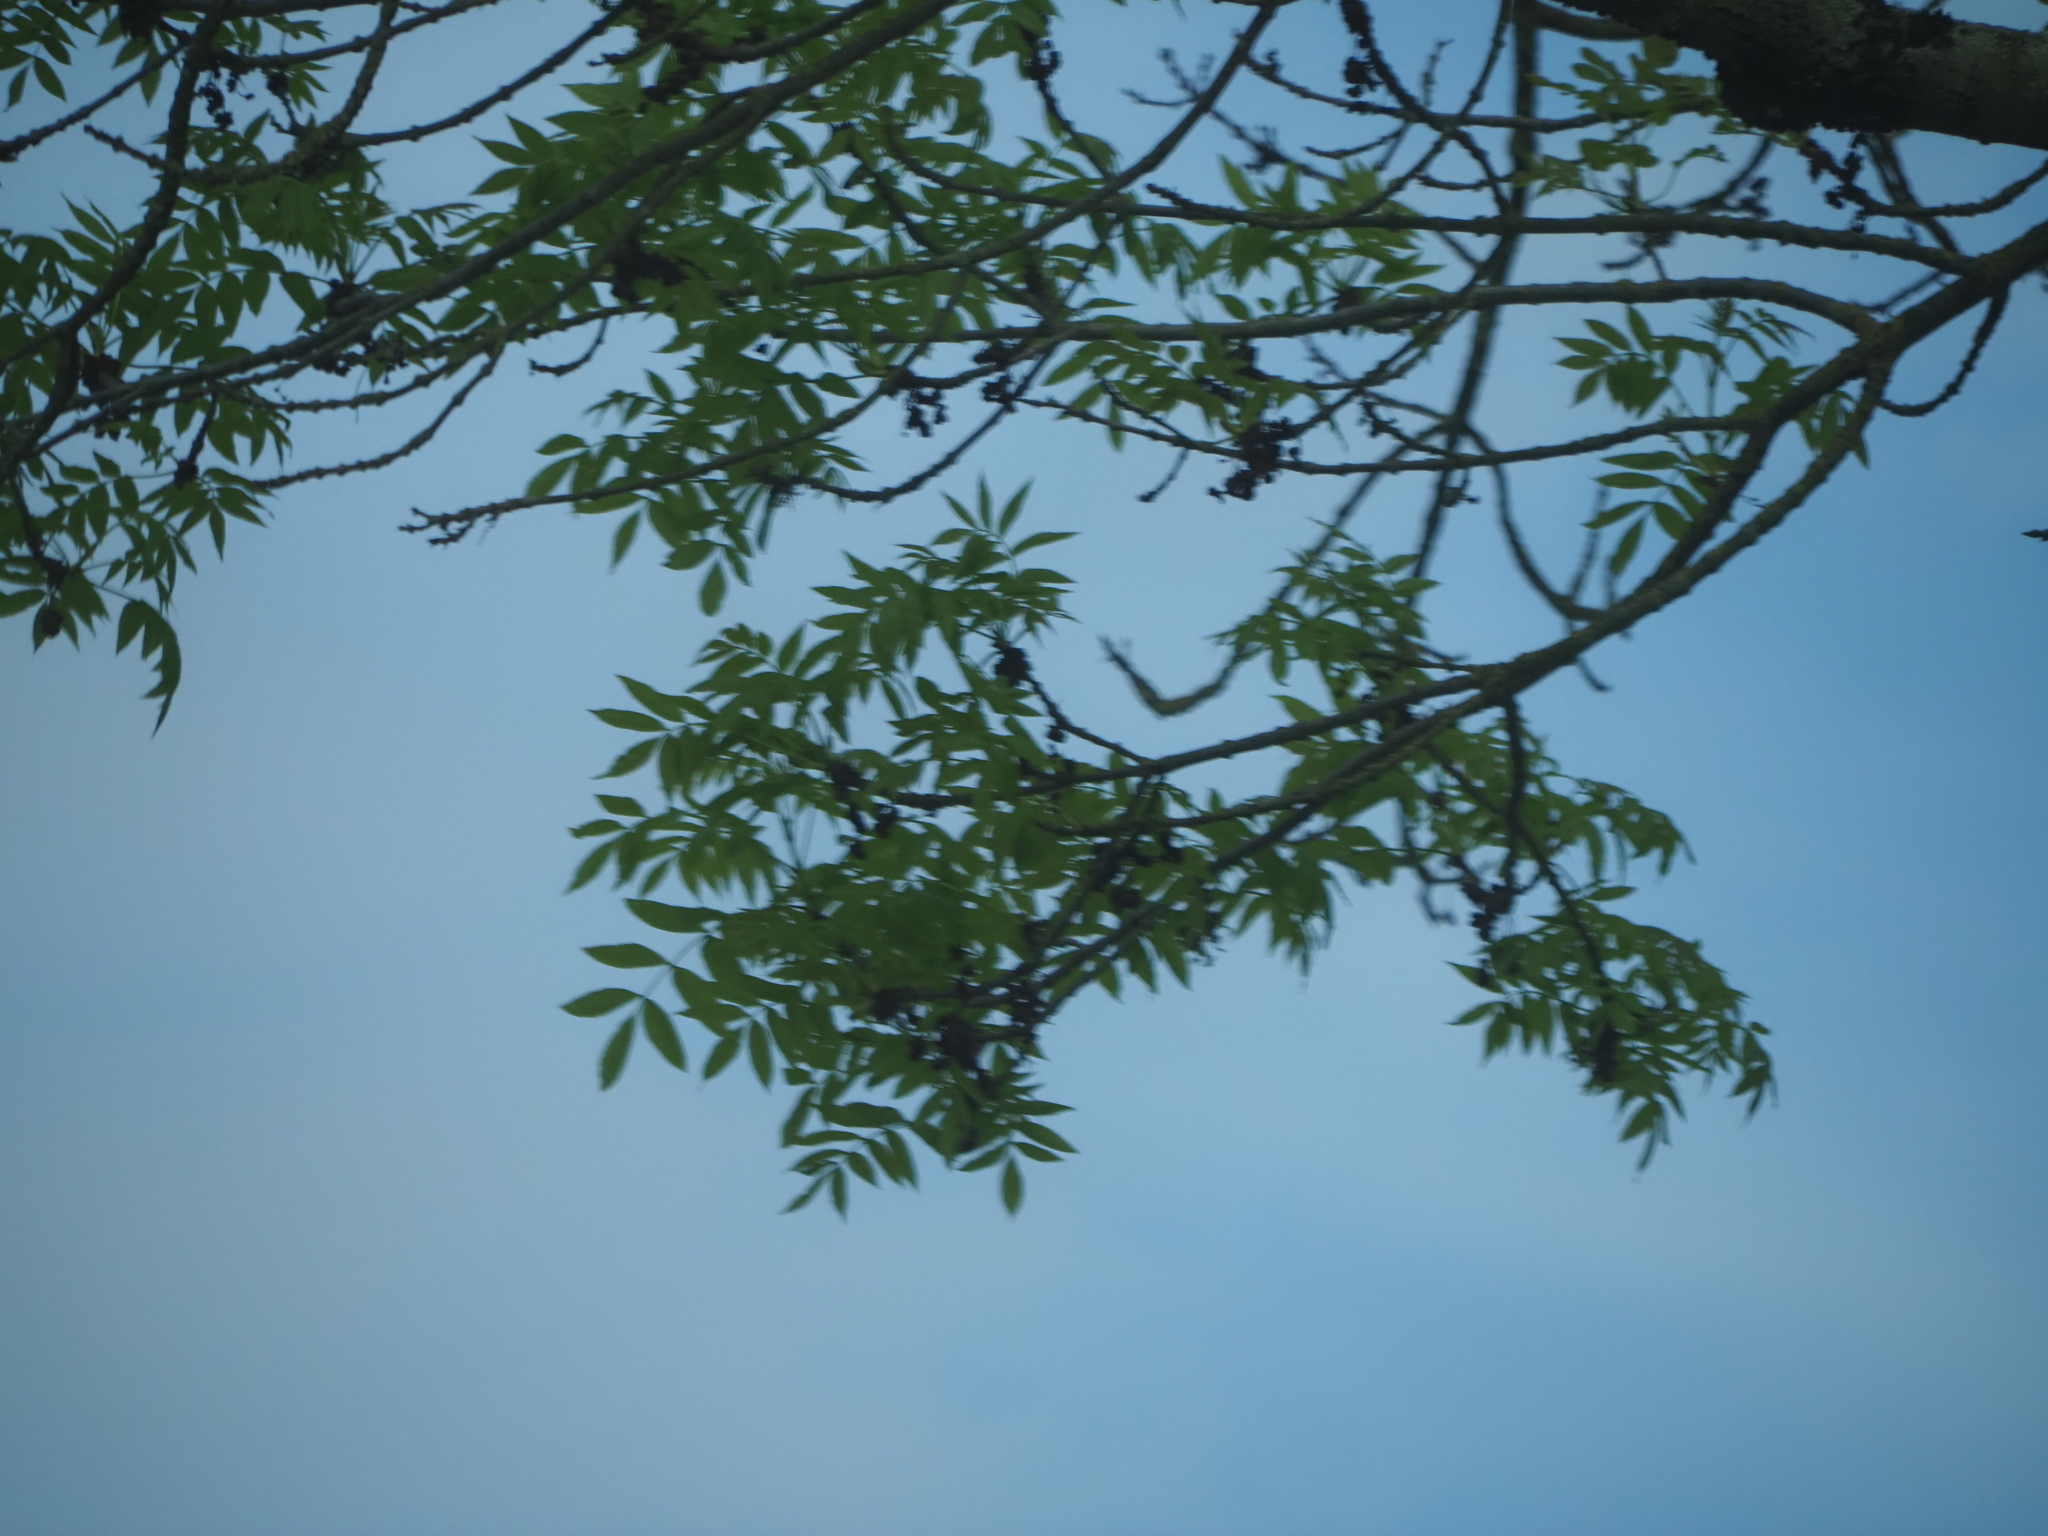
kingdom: Plantae
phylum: Tracheophyta
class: Magnoliopsida
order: Lamiales
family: Oleaceae
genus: Fraxinus
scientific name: Fraxinus excelsior
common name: European ash
